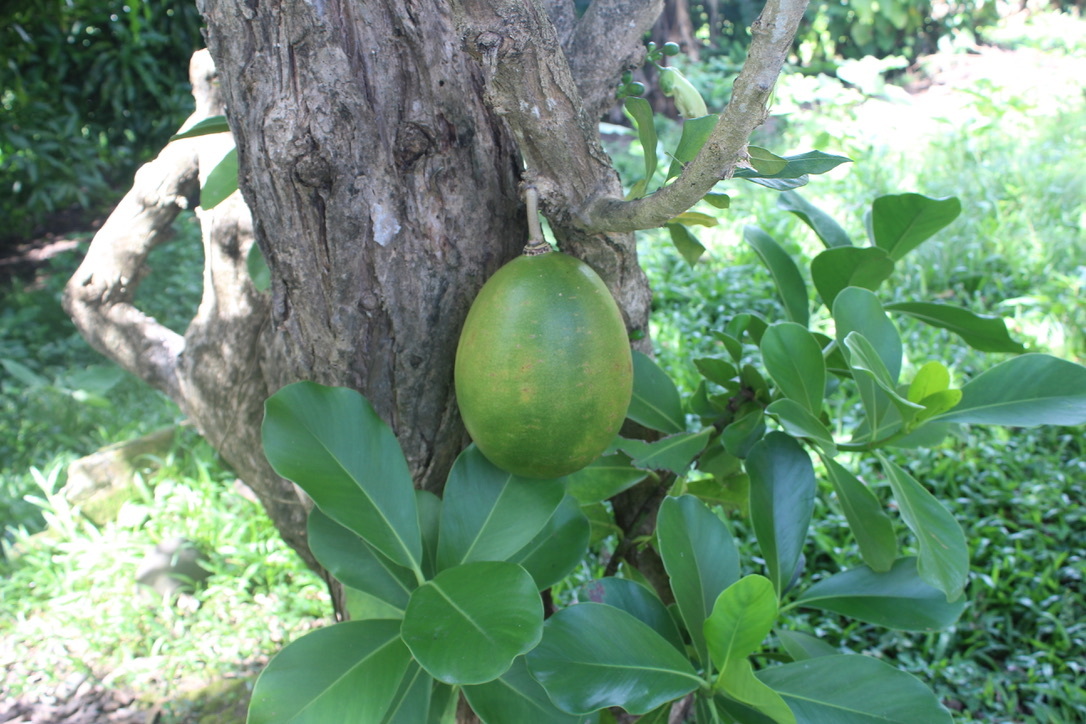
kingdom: Plantae
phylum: Tracheophyta
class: Magnoliopsida
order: Lamiales
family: Bignoniaceae
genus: Crescentia
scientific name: Crescentia cujete
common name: Calabash
